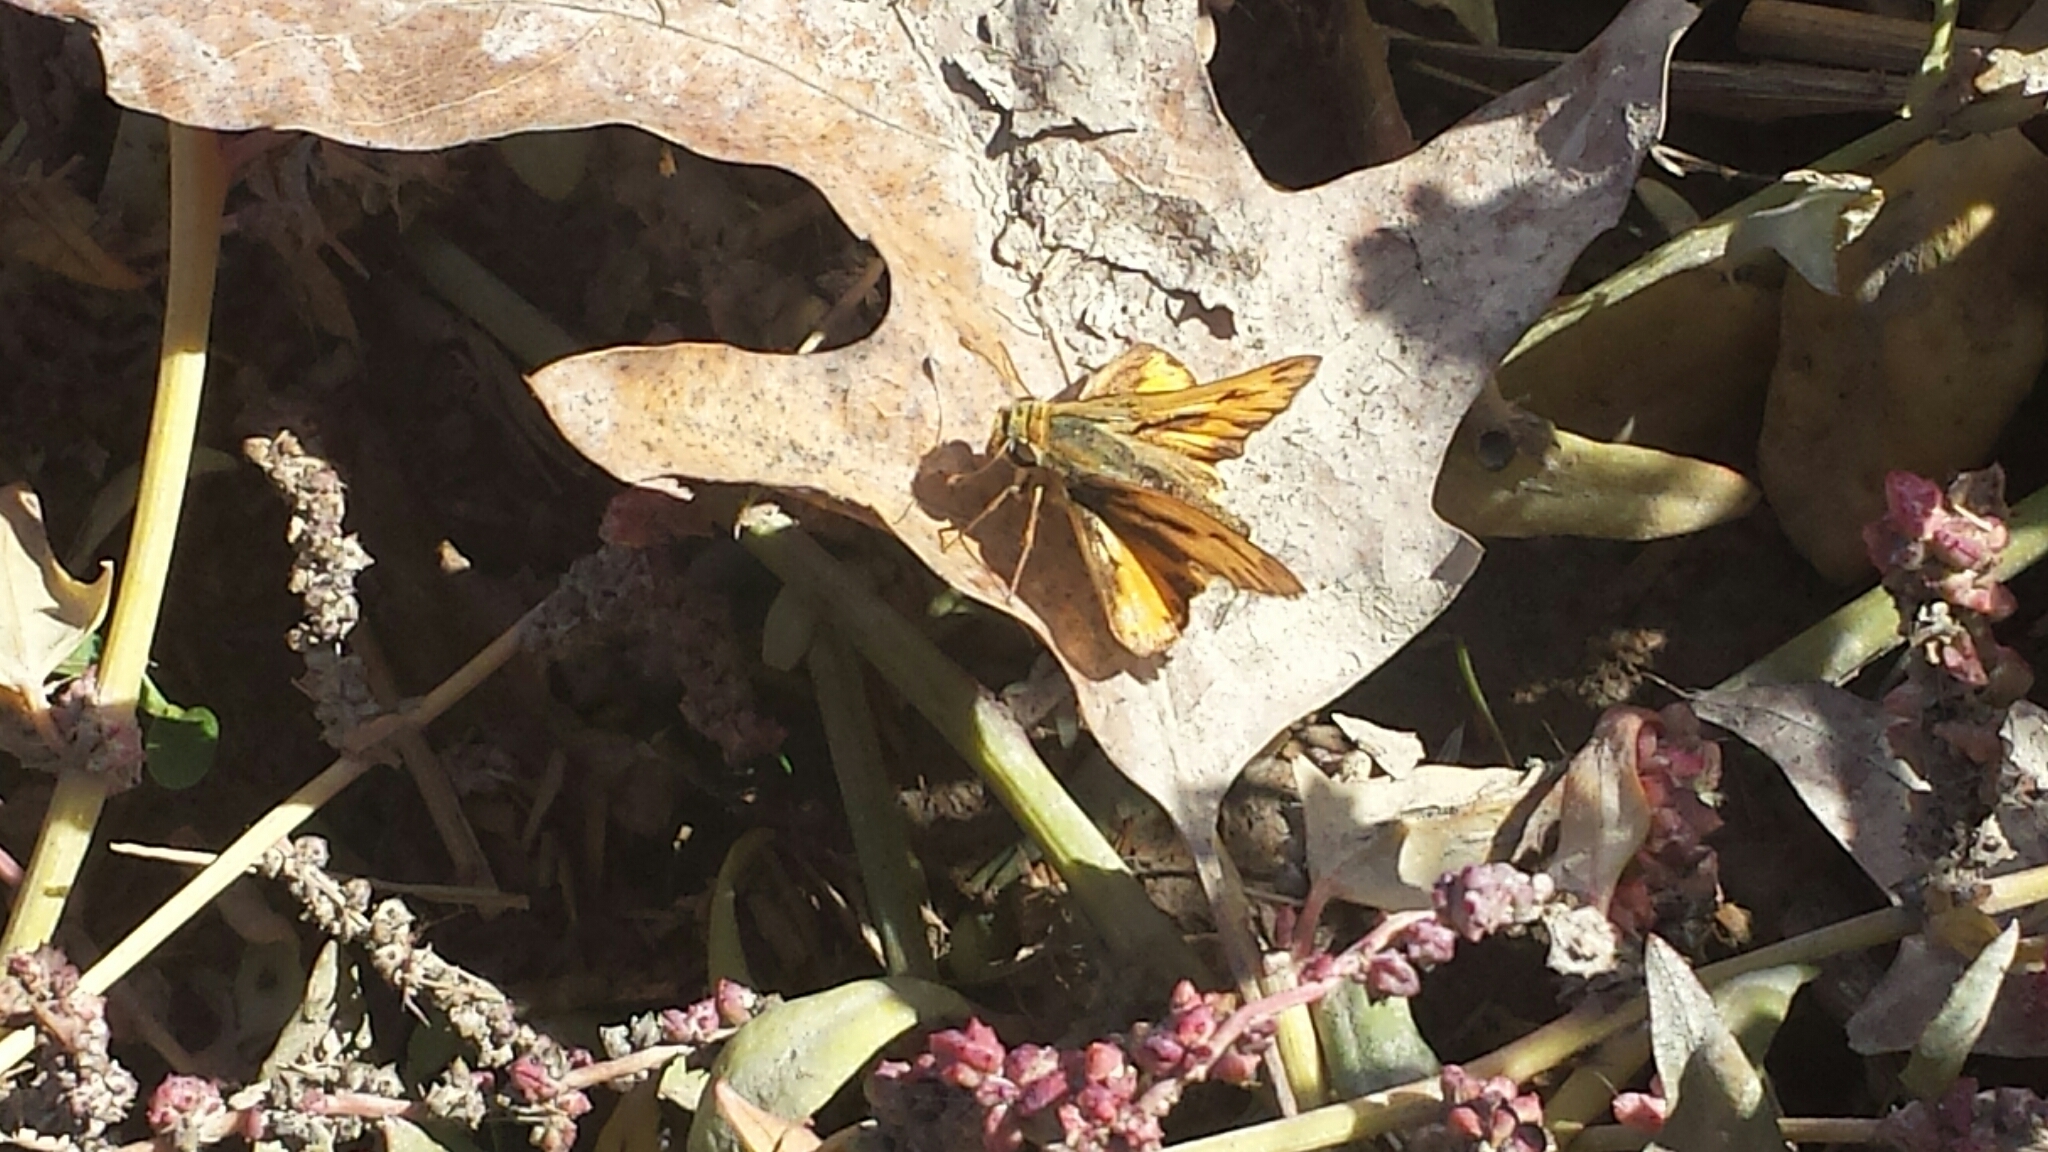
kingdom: Animalia
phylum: Arthropoda
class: Insecta
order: Lepidoptera
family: Hesperiidae
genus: Hylephila
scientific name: Hylephila phyleus
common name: Fiery skipper
